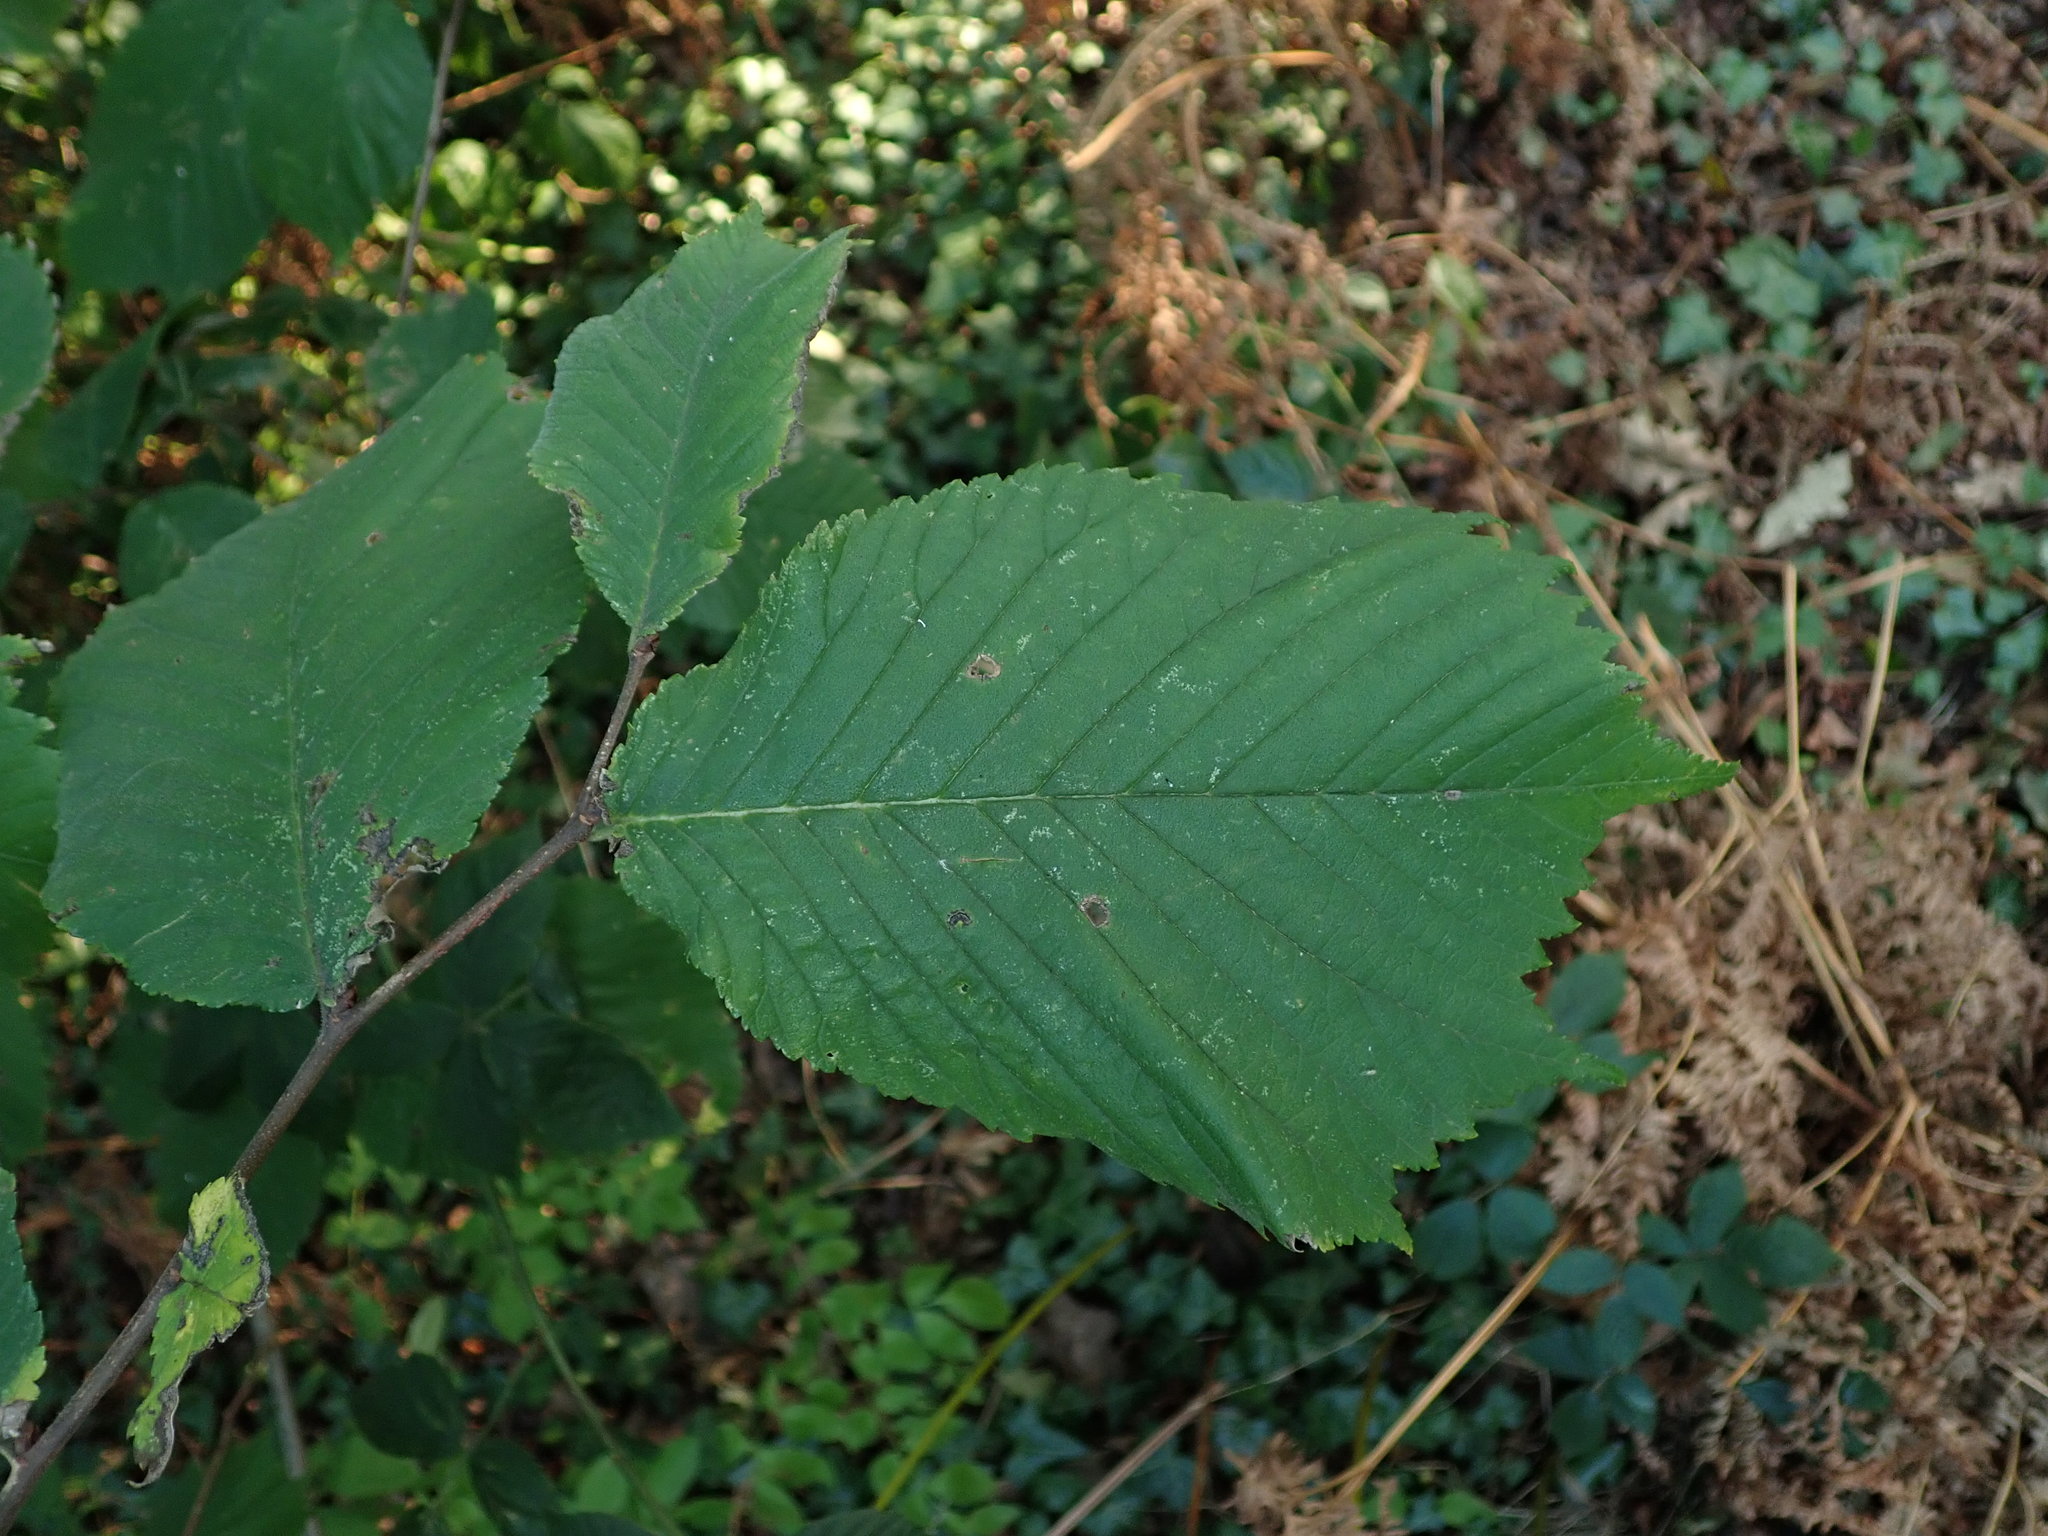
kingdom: Plantae
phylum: Tracheophyta
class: Magnoliopsida
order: Rosales
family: Ulmaceae
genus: Ulmus
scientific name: Ulmus glabra
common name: Wych elm
